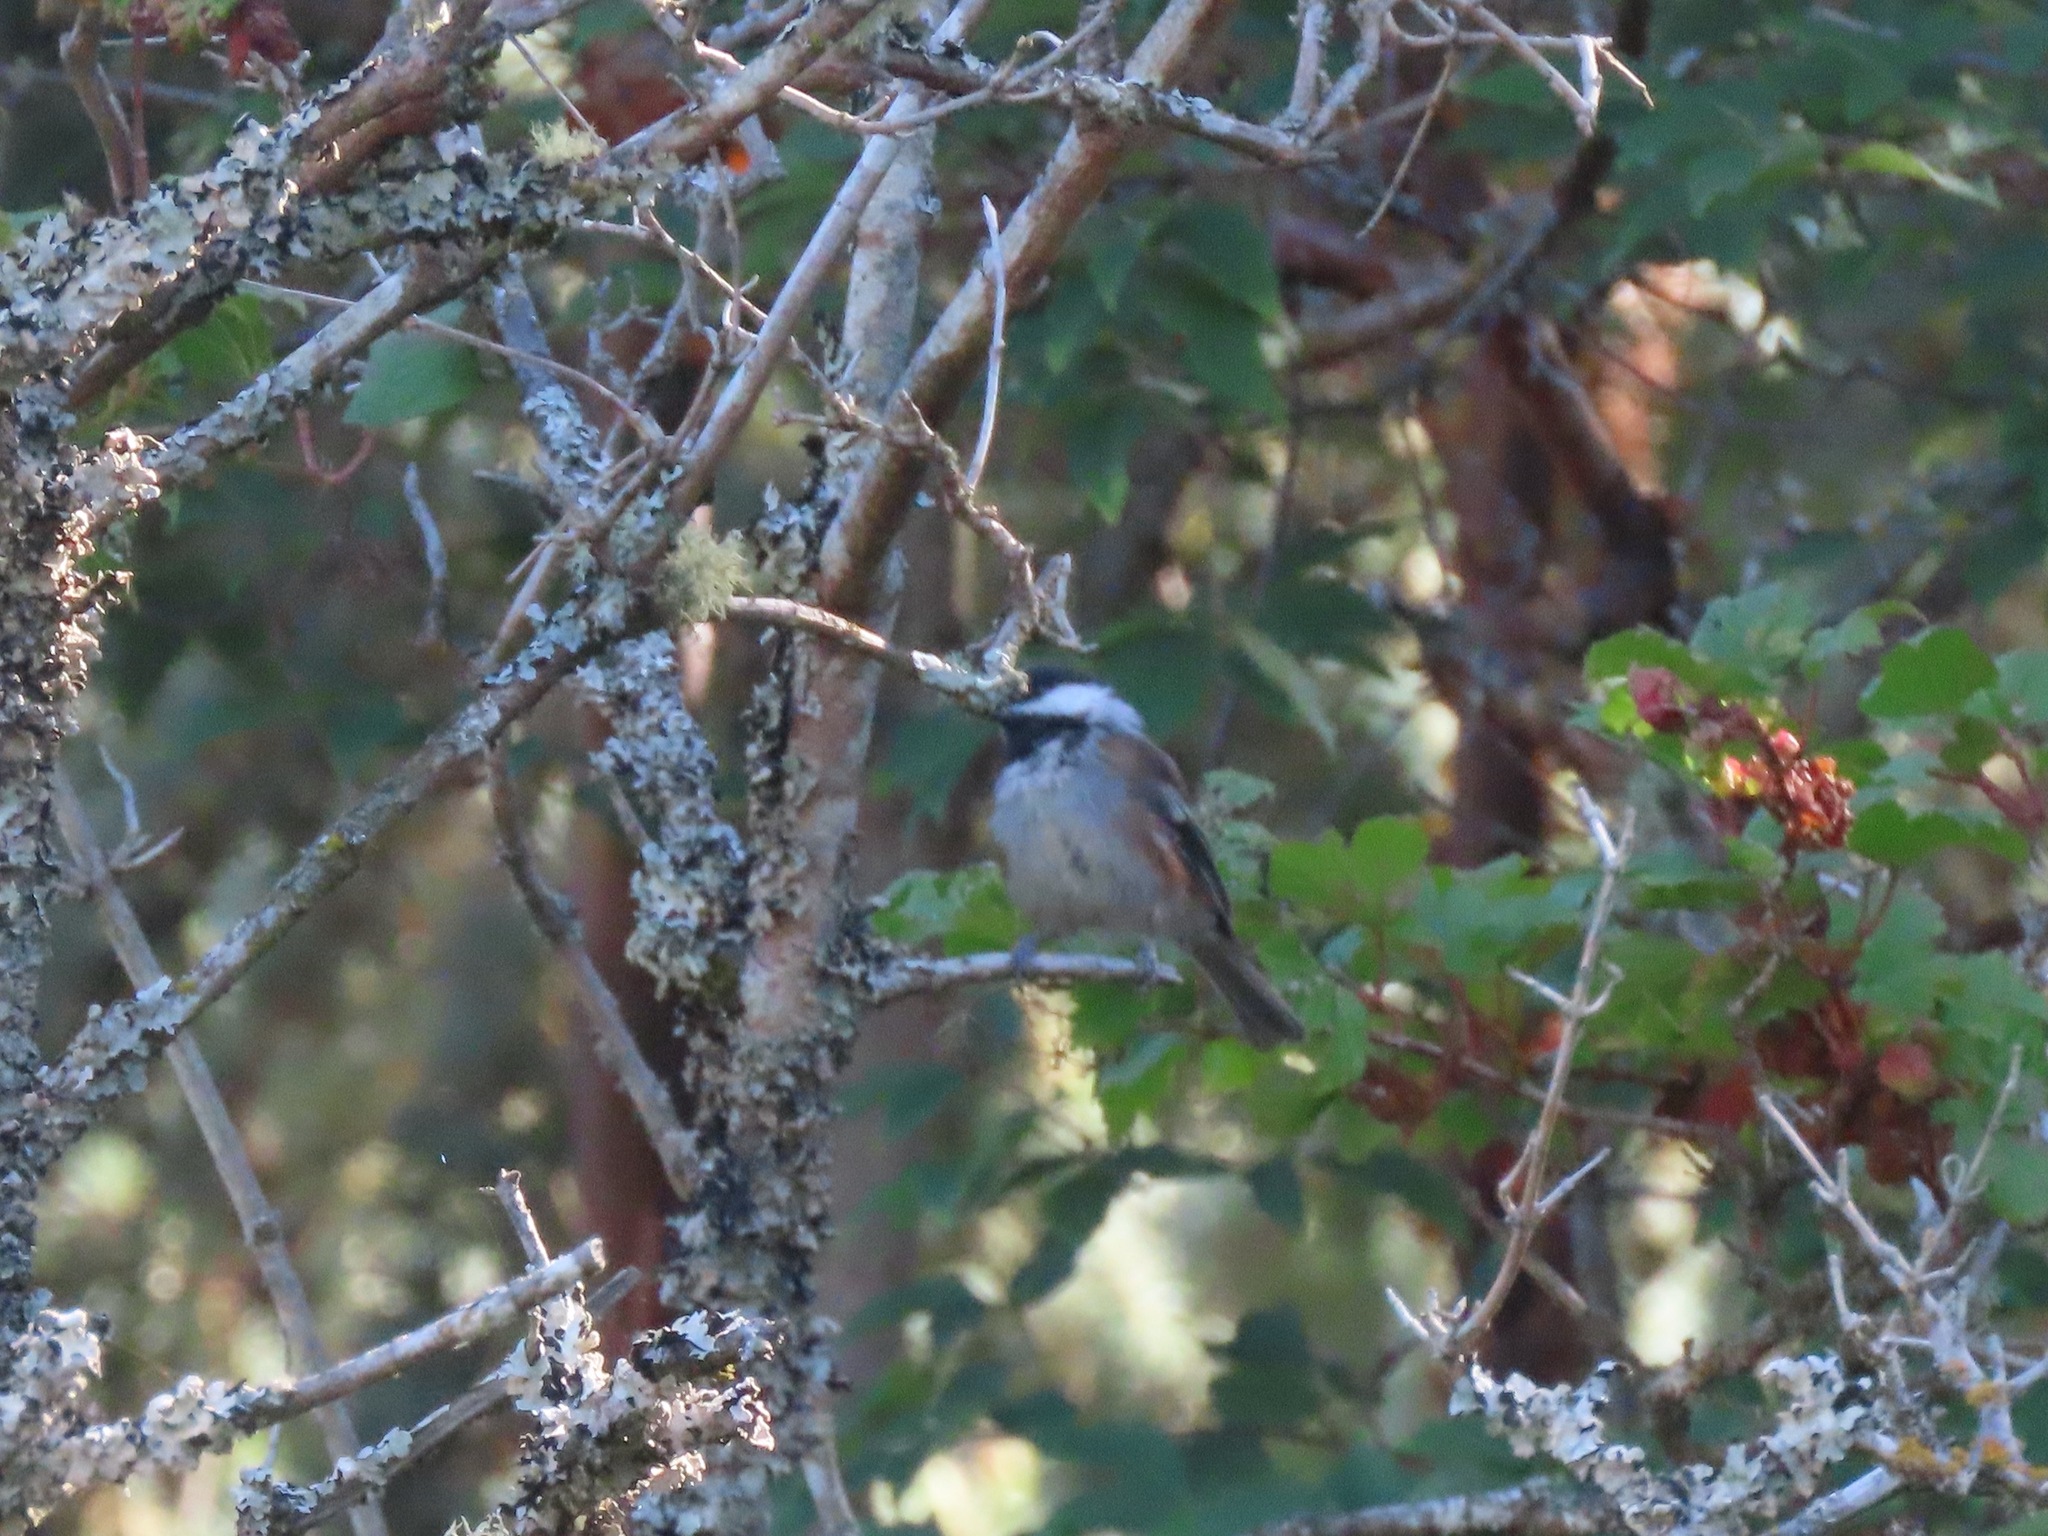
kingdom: Animalia
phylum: Chordata
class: Aves
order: Passeriformes
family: Paridae
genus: Poecile
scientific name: Poecile rufescens
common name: Chestnut-backed chickadee
